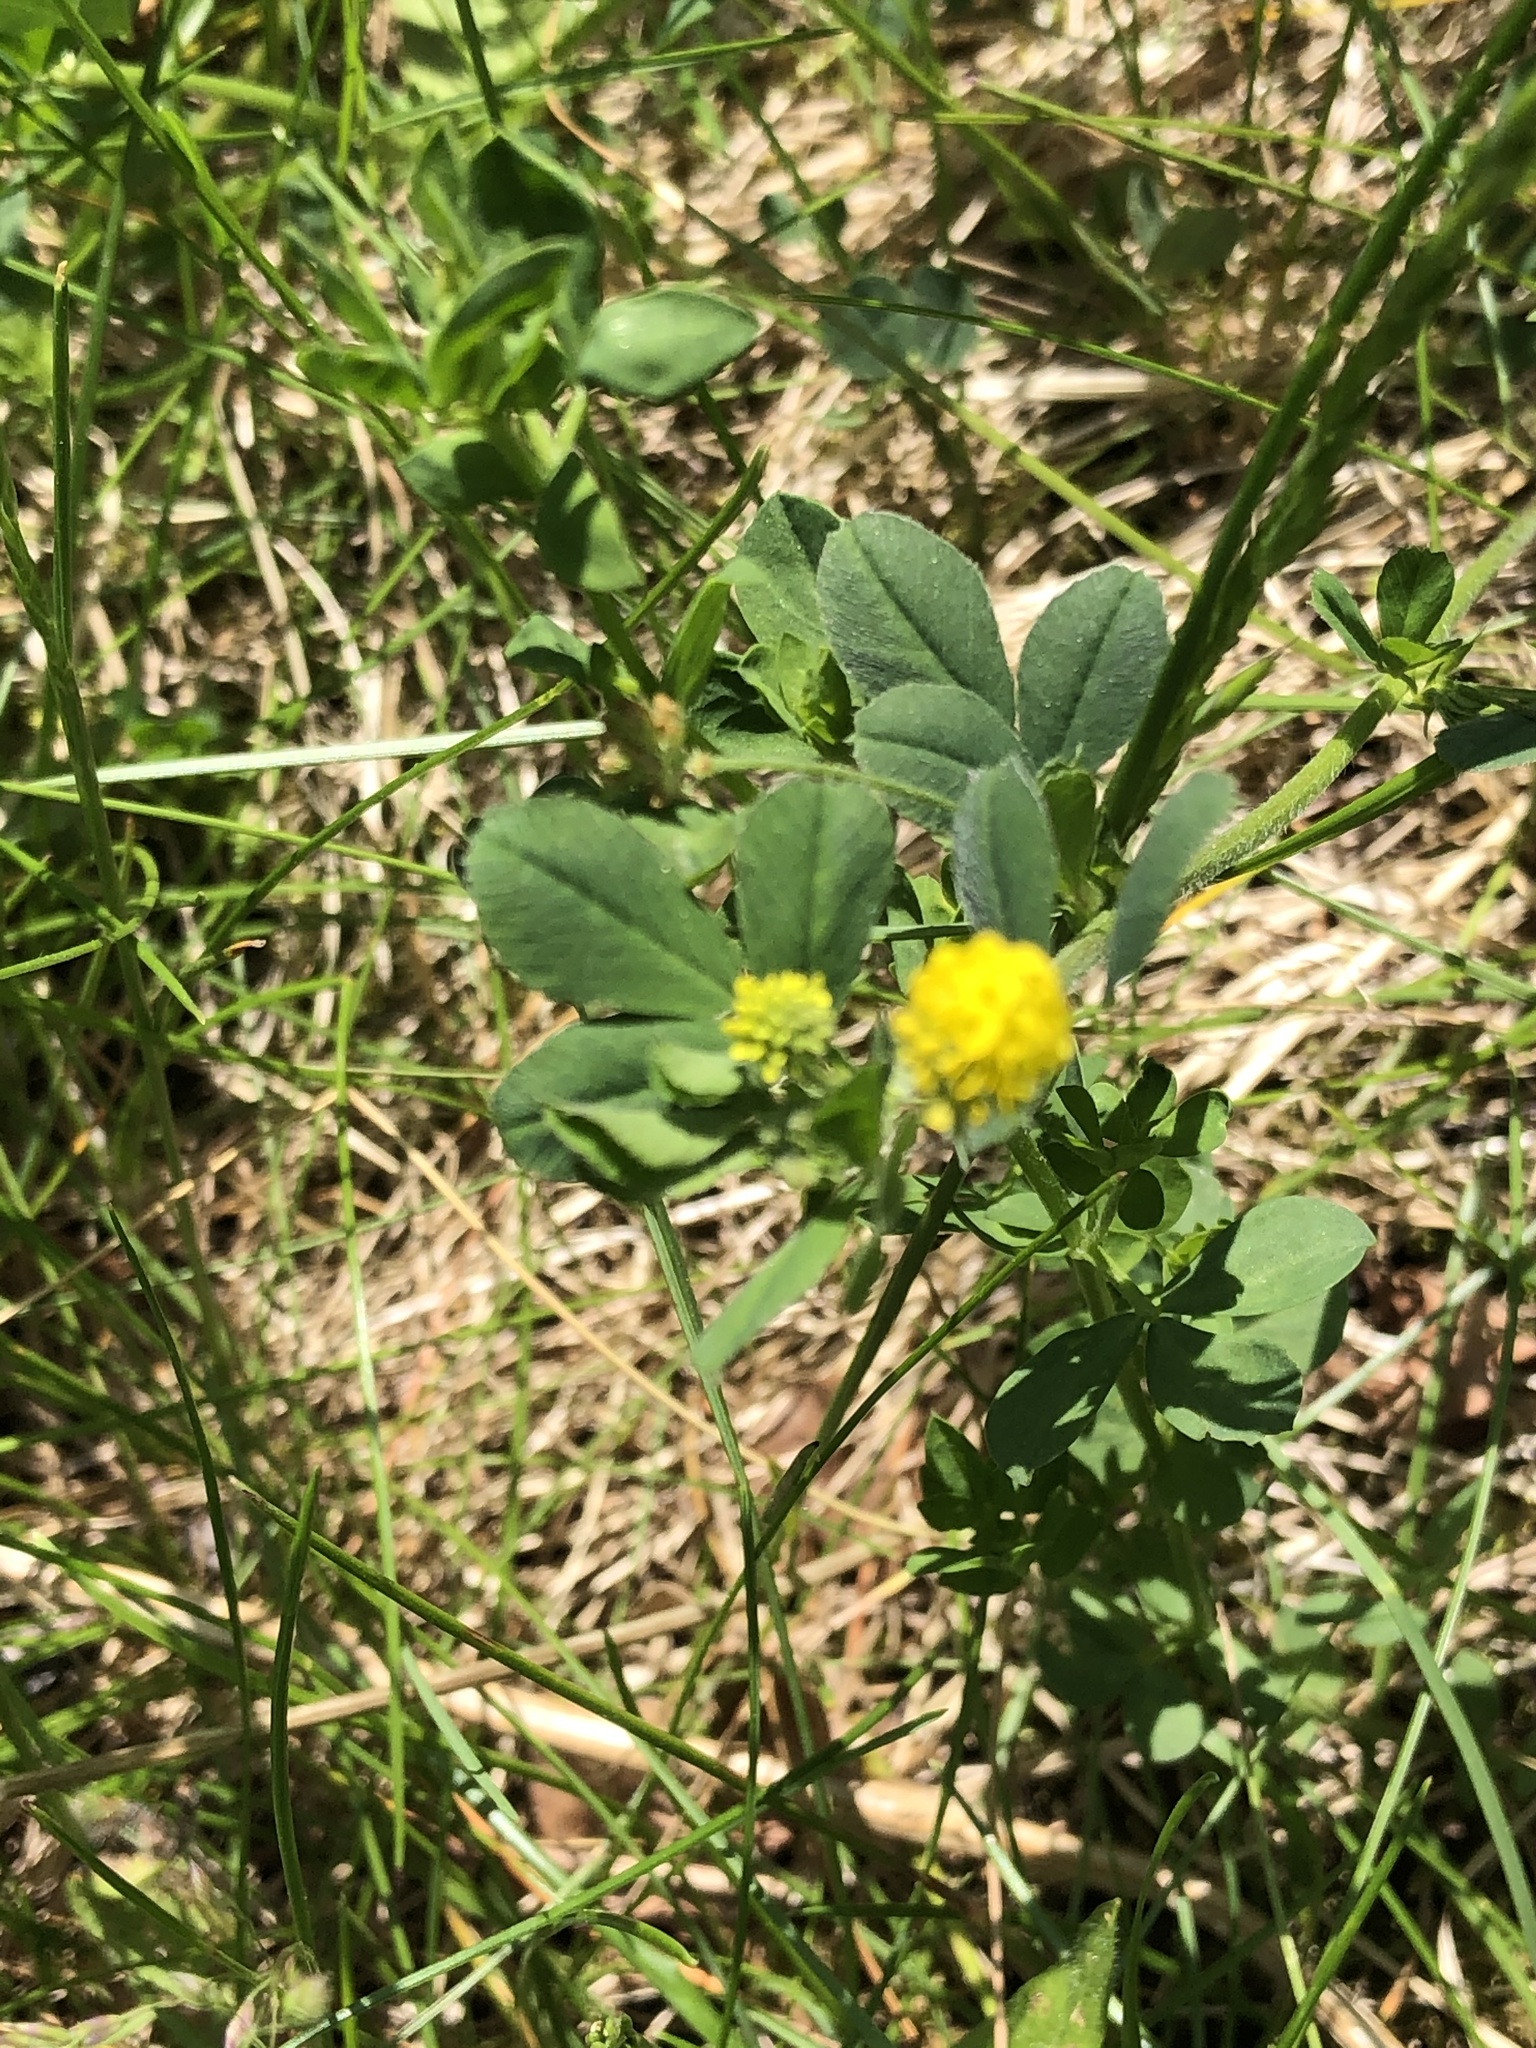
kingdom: Plantae
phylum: Tracheophyta
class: Magnoliopsida
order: Fabales
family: Fabaceae
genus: Medicago
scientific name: Medicago lupulina
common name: Black medick
